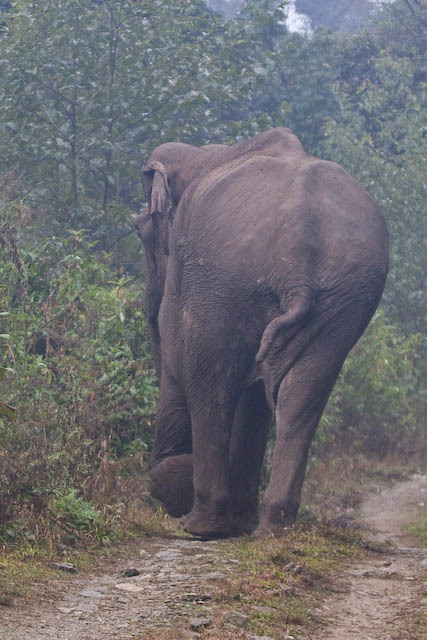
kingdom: Animalia
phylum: Chordata
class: Mammalia
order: Proboscidea
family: Elephantidae
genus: Elephas
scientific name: Elephas maximus
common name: Asian elephant
